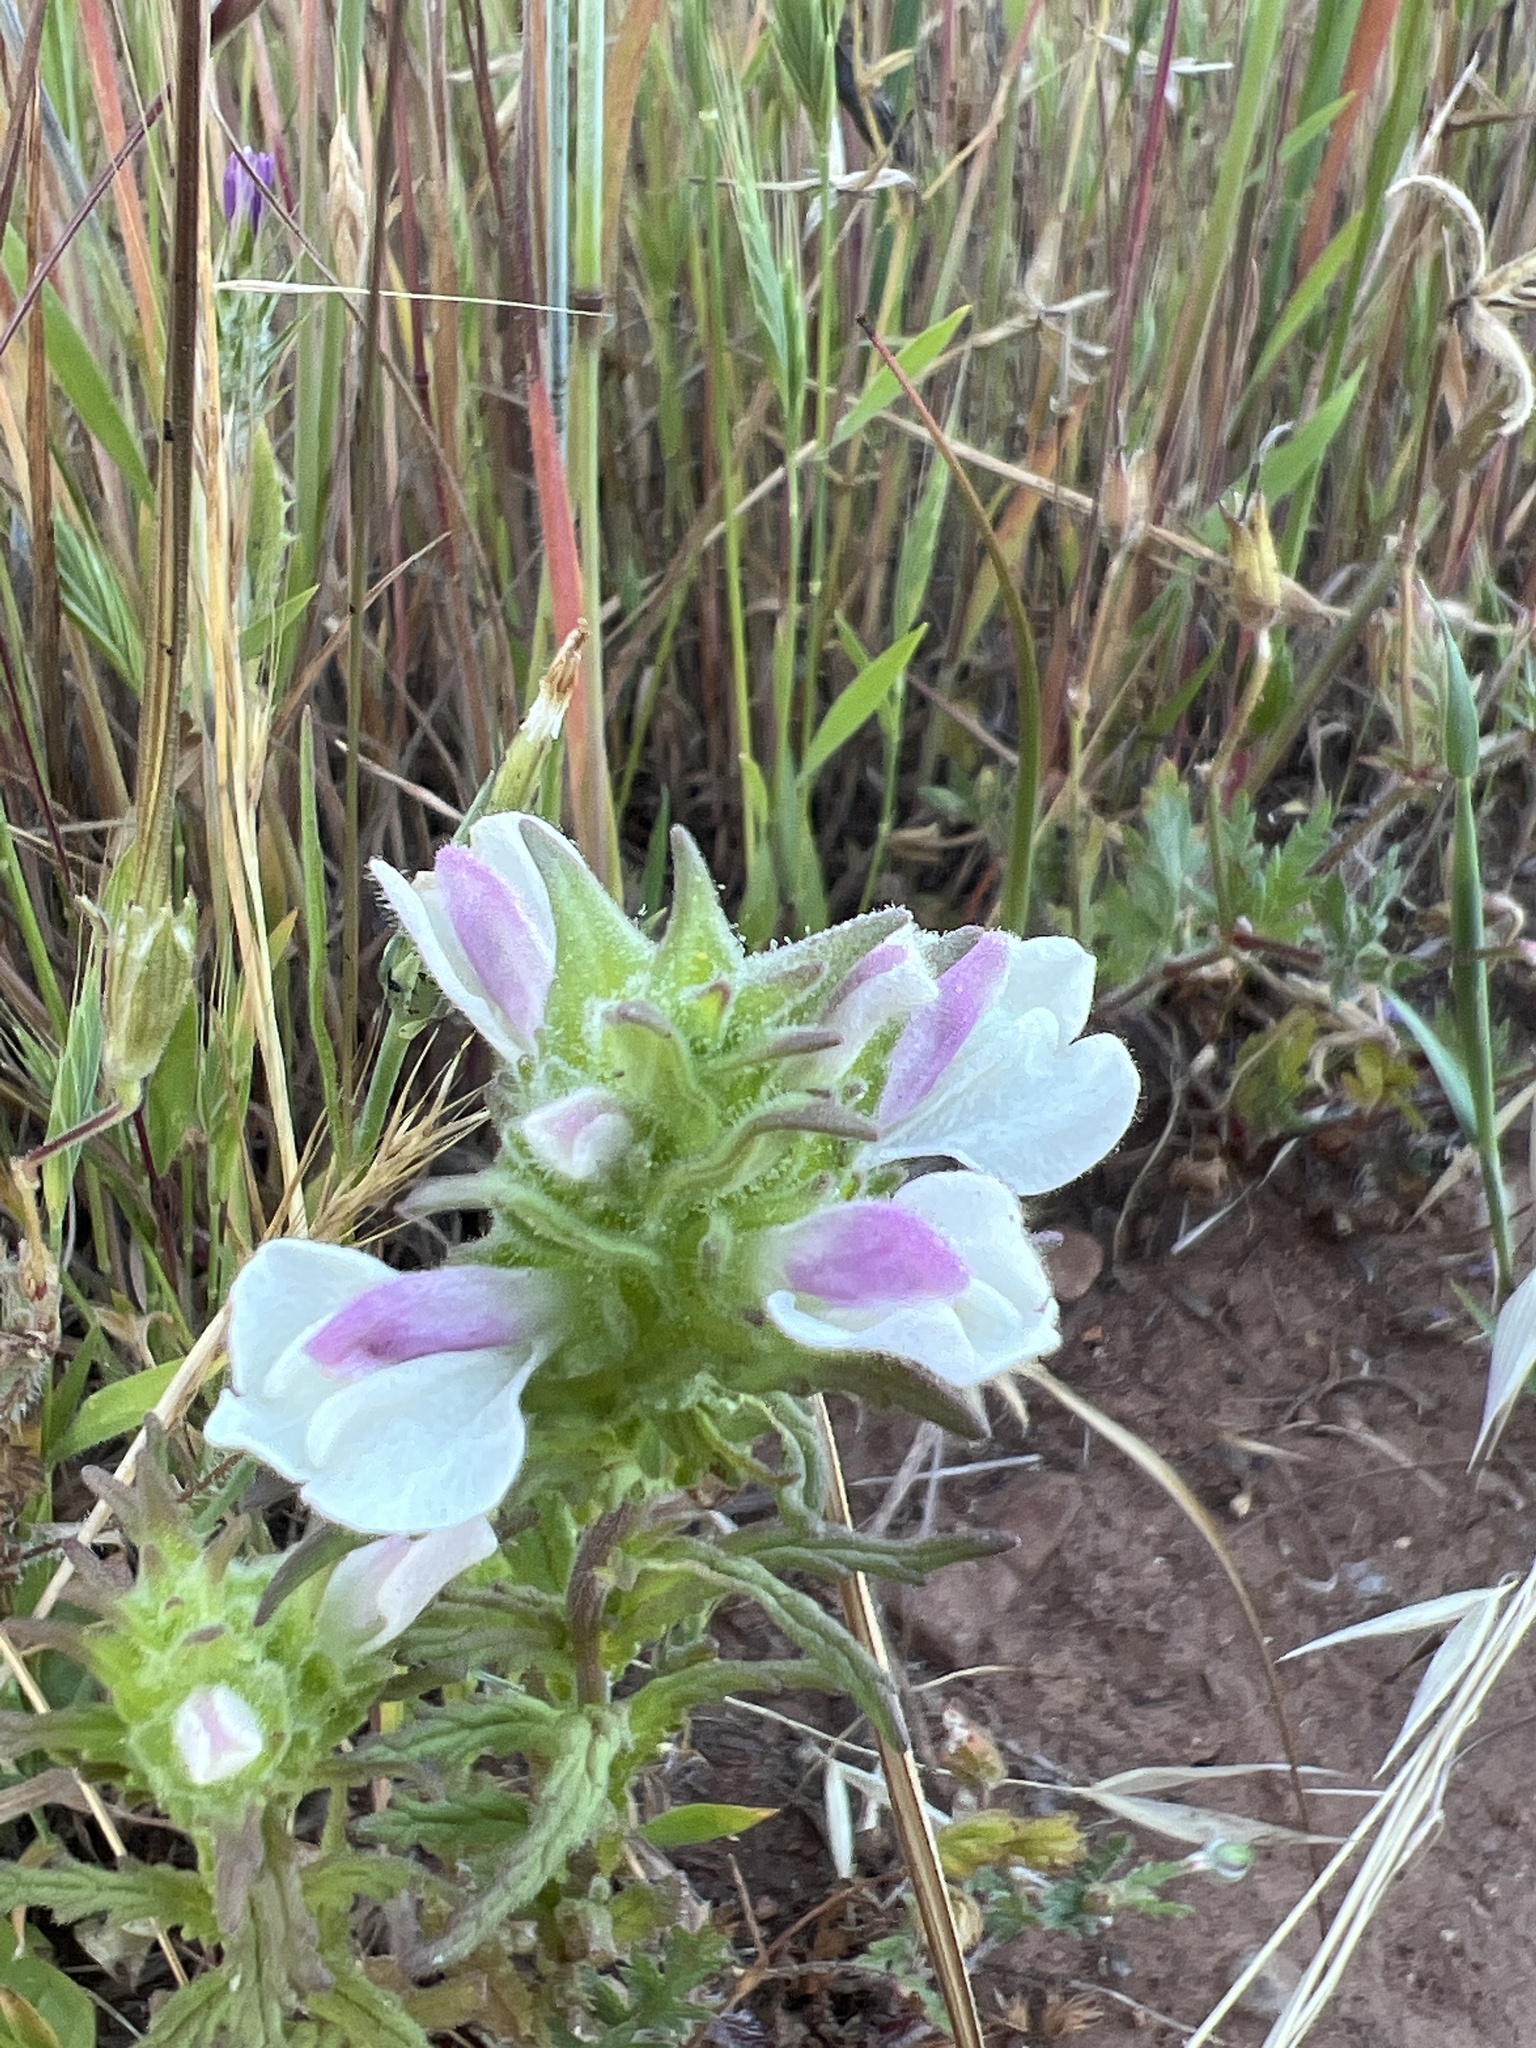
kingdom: Plantae
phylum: Tracheophyta
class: Magnoliopsida
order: Lamiales
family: Orobanchaceae
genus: Bellardia
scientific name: Bellardia trixago
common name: Mediterranean lineseed
